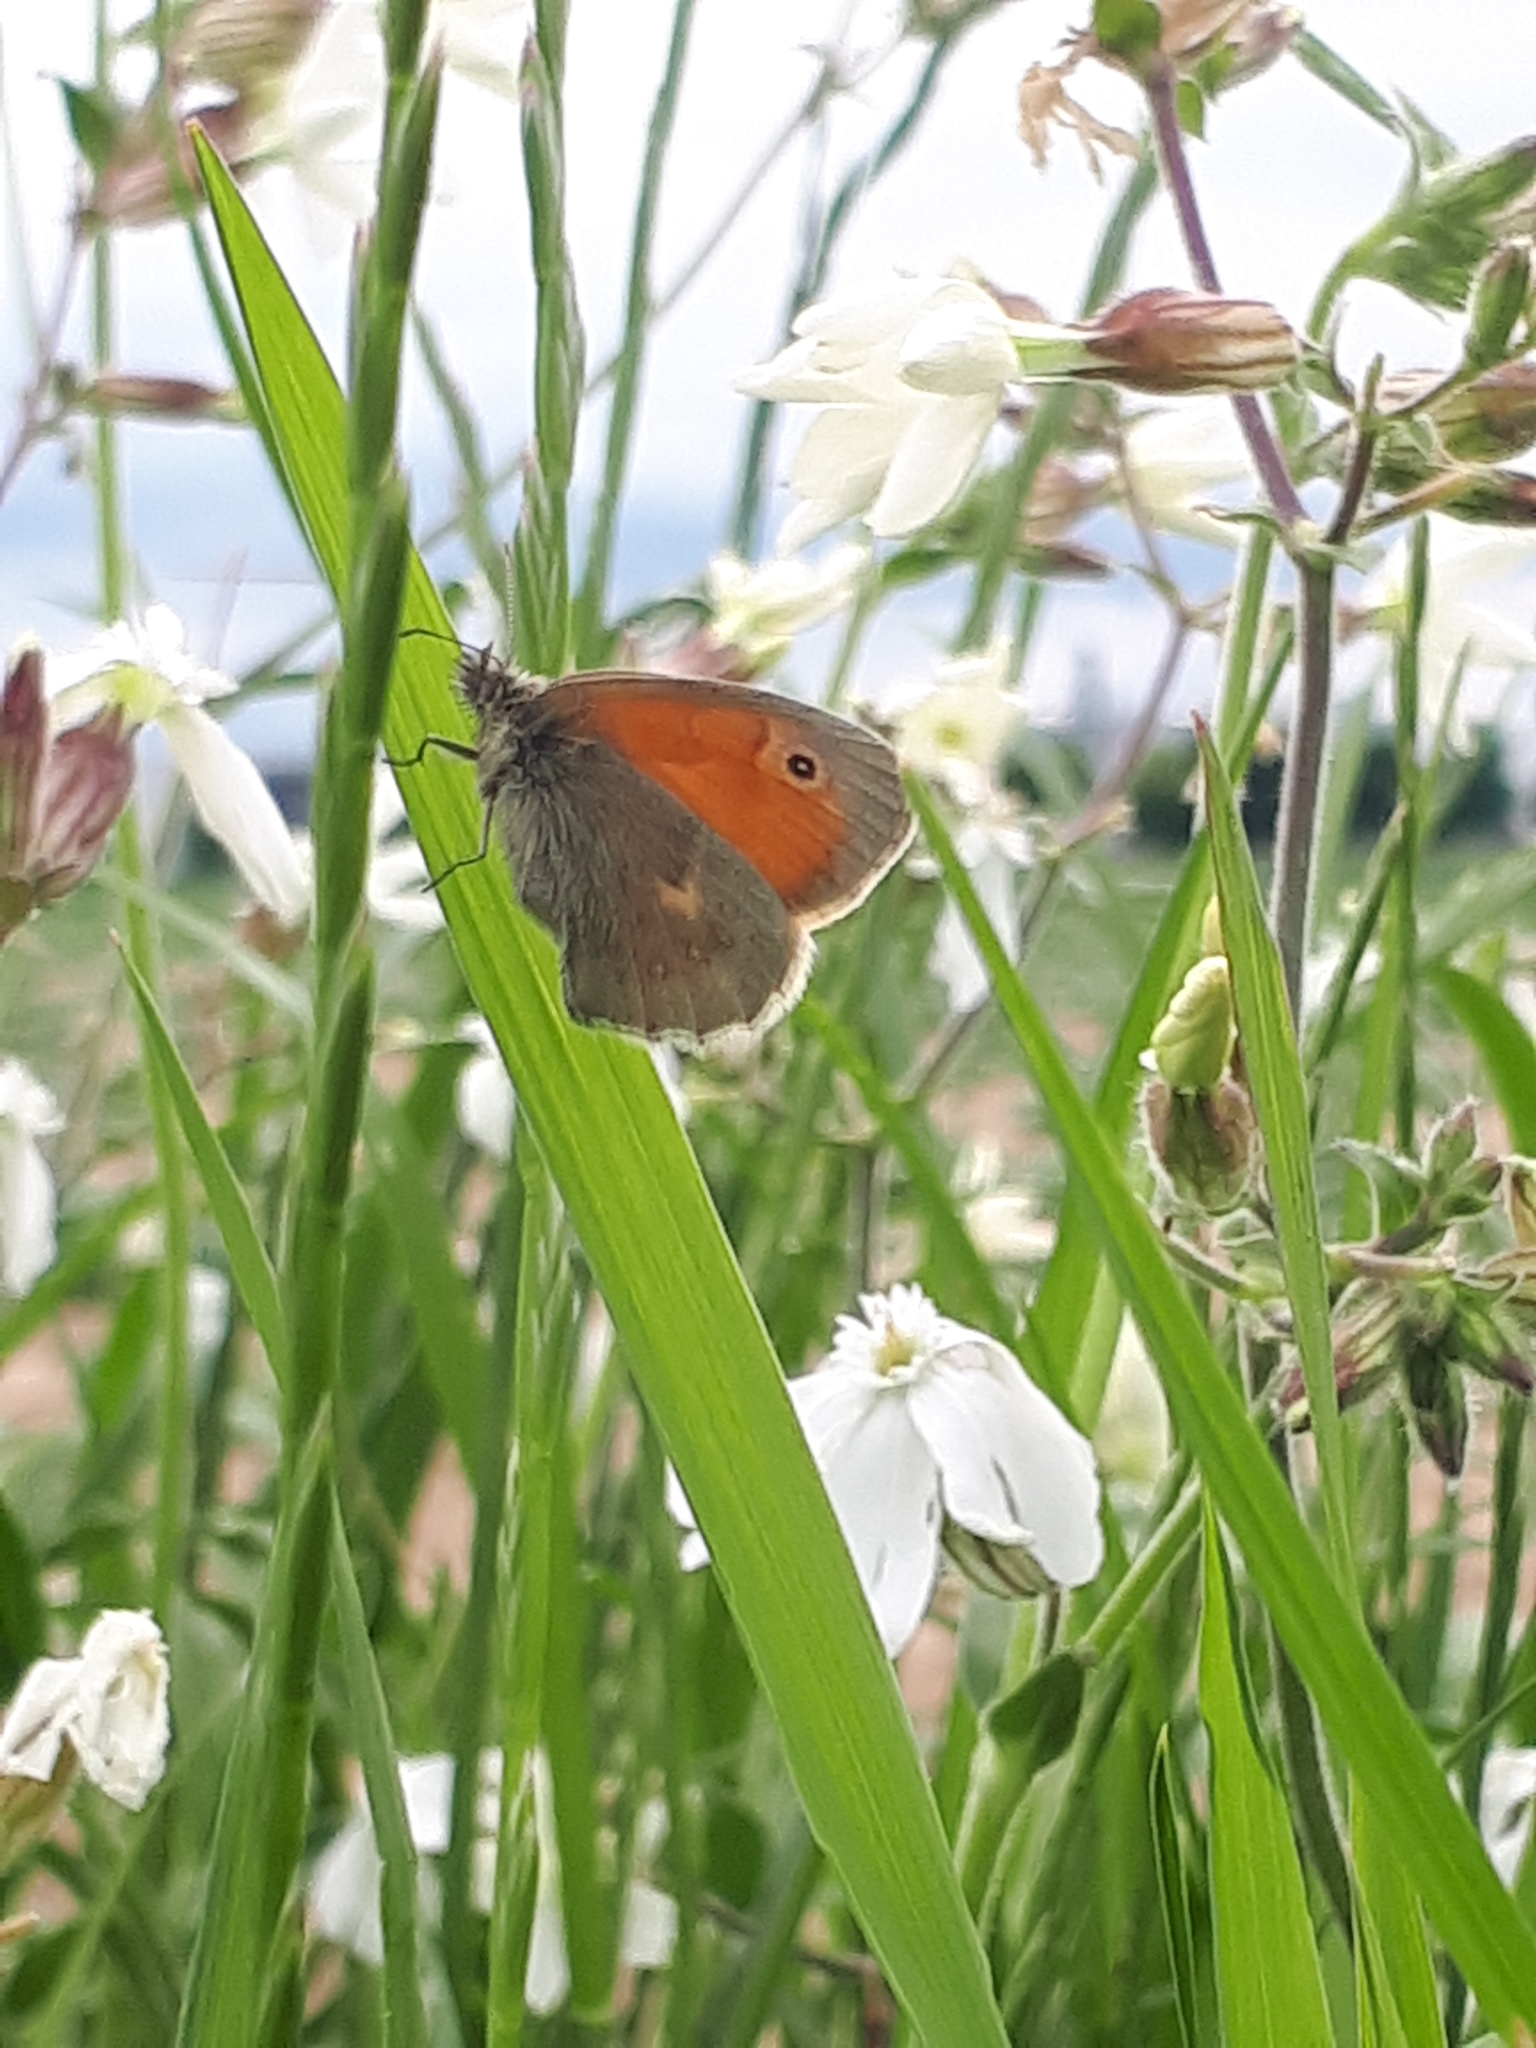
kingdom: Animalia
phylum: Arthropoda
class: Insecta
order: Lepidoptera
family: Nymphalidae
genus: Coenonympha
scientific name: Coenonympha pamphilus
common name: Small heath
